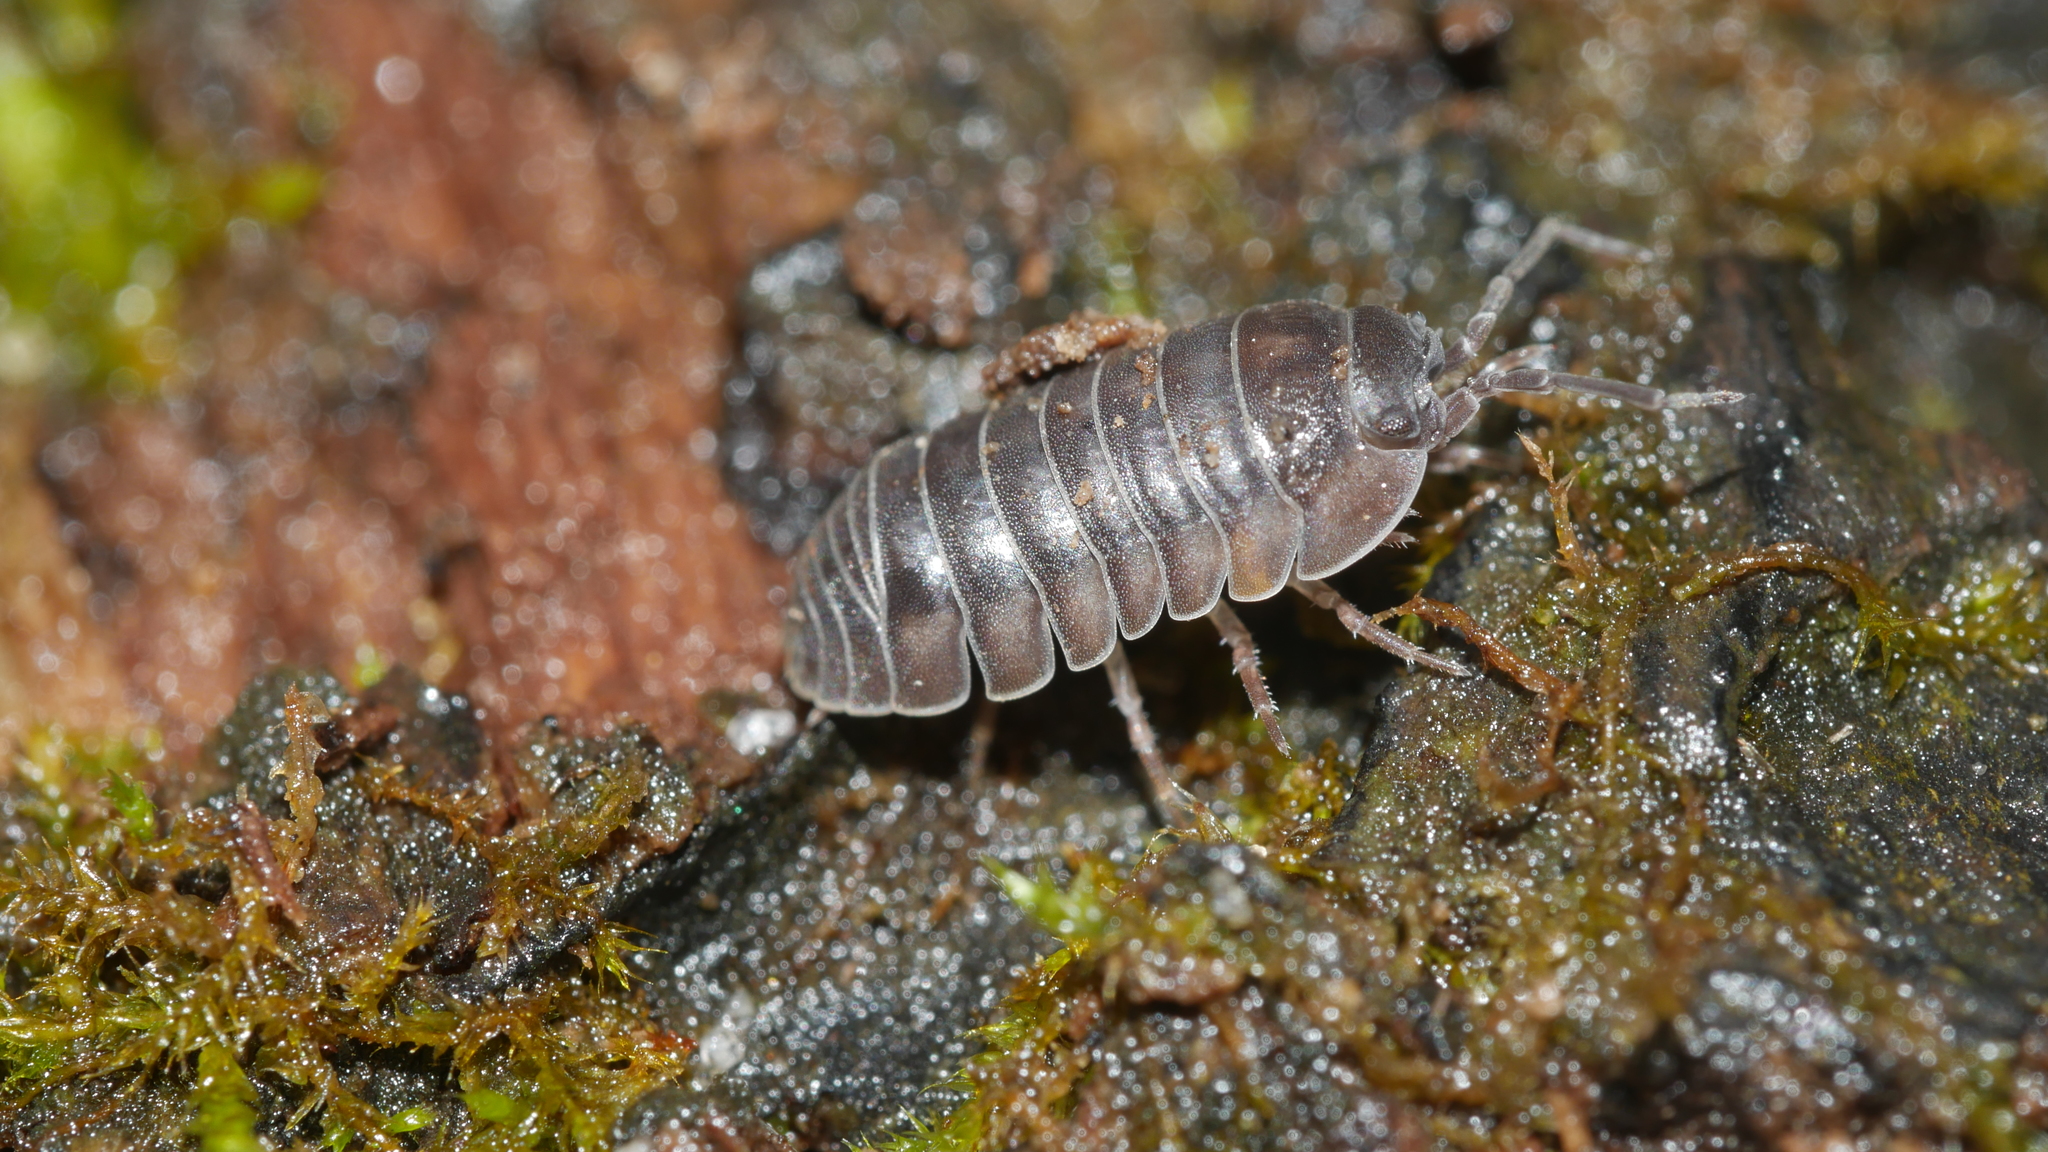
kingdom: Animalia
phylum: Arthropoda
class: Malacostraca
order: Isopoda
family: Armadillidiidae
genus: Armadillidium
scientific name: Armadillidium nasatum
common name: Isopod
